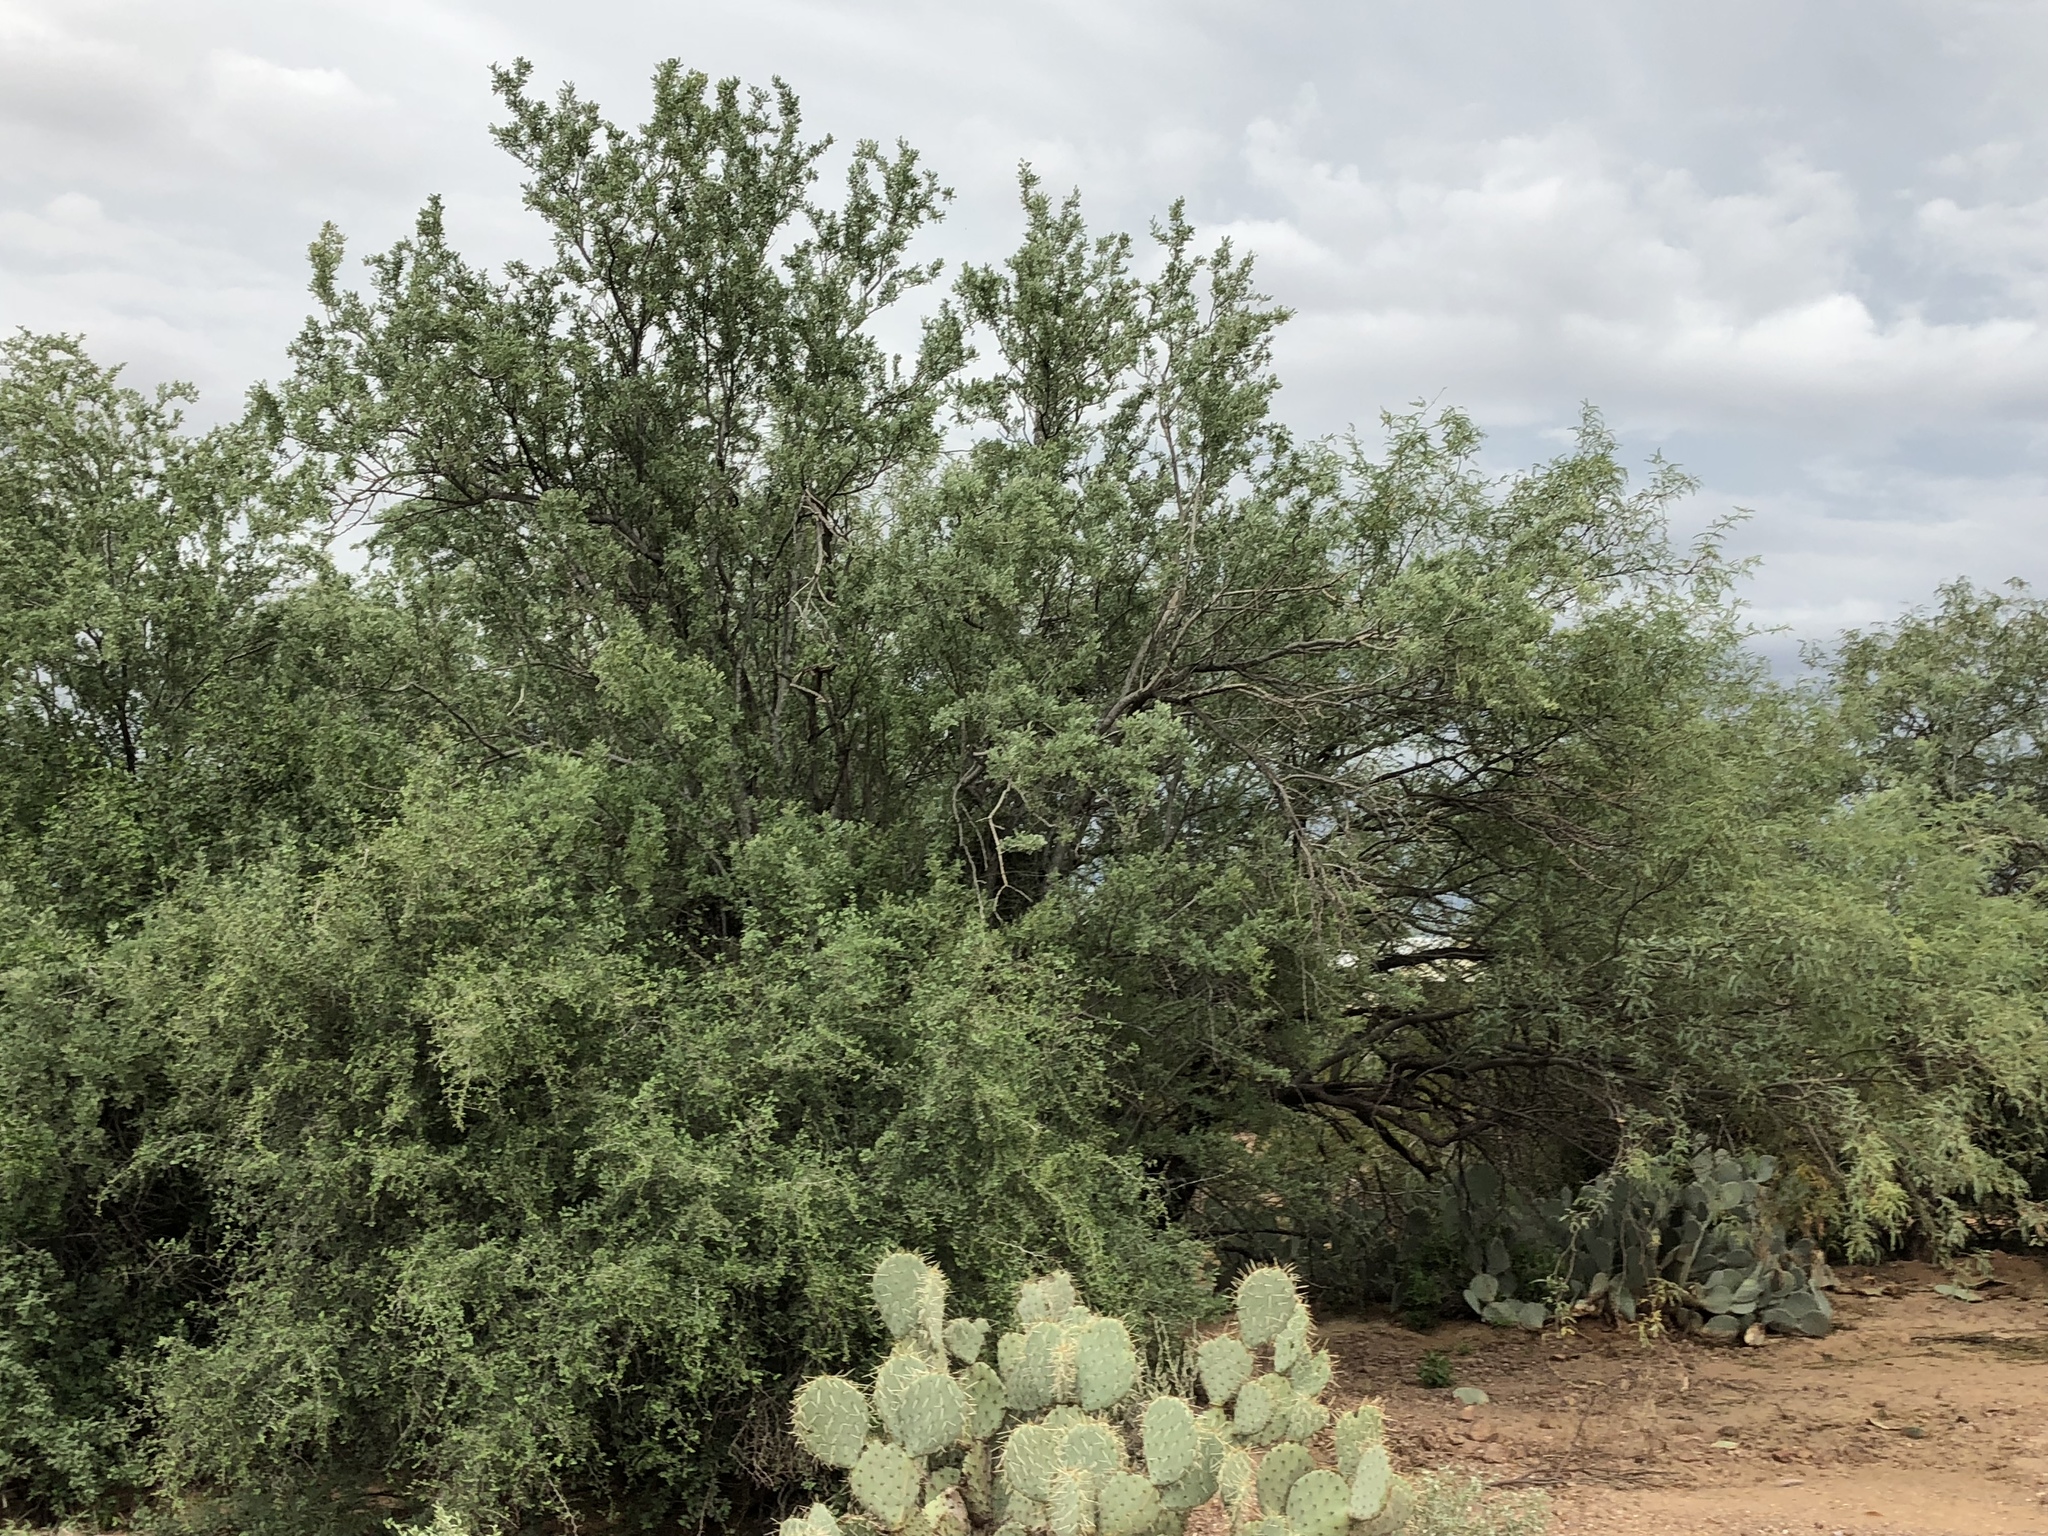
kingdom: Plantae
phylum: Tracheophyta
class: Magnoliopsida
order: Fabales
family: Fabaceae
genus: Olneya
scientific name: Olneya tesota
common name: Desert ironwood
